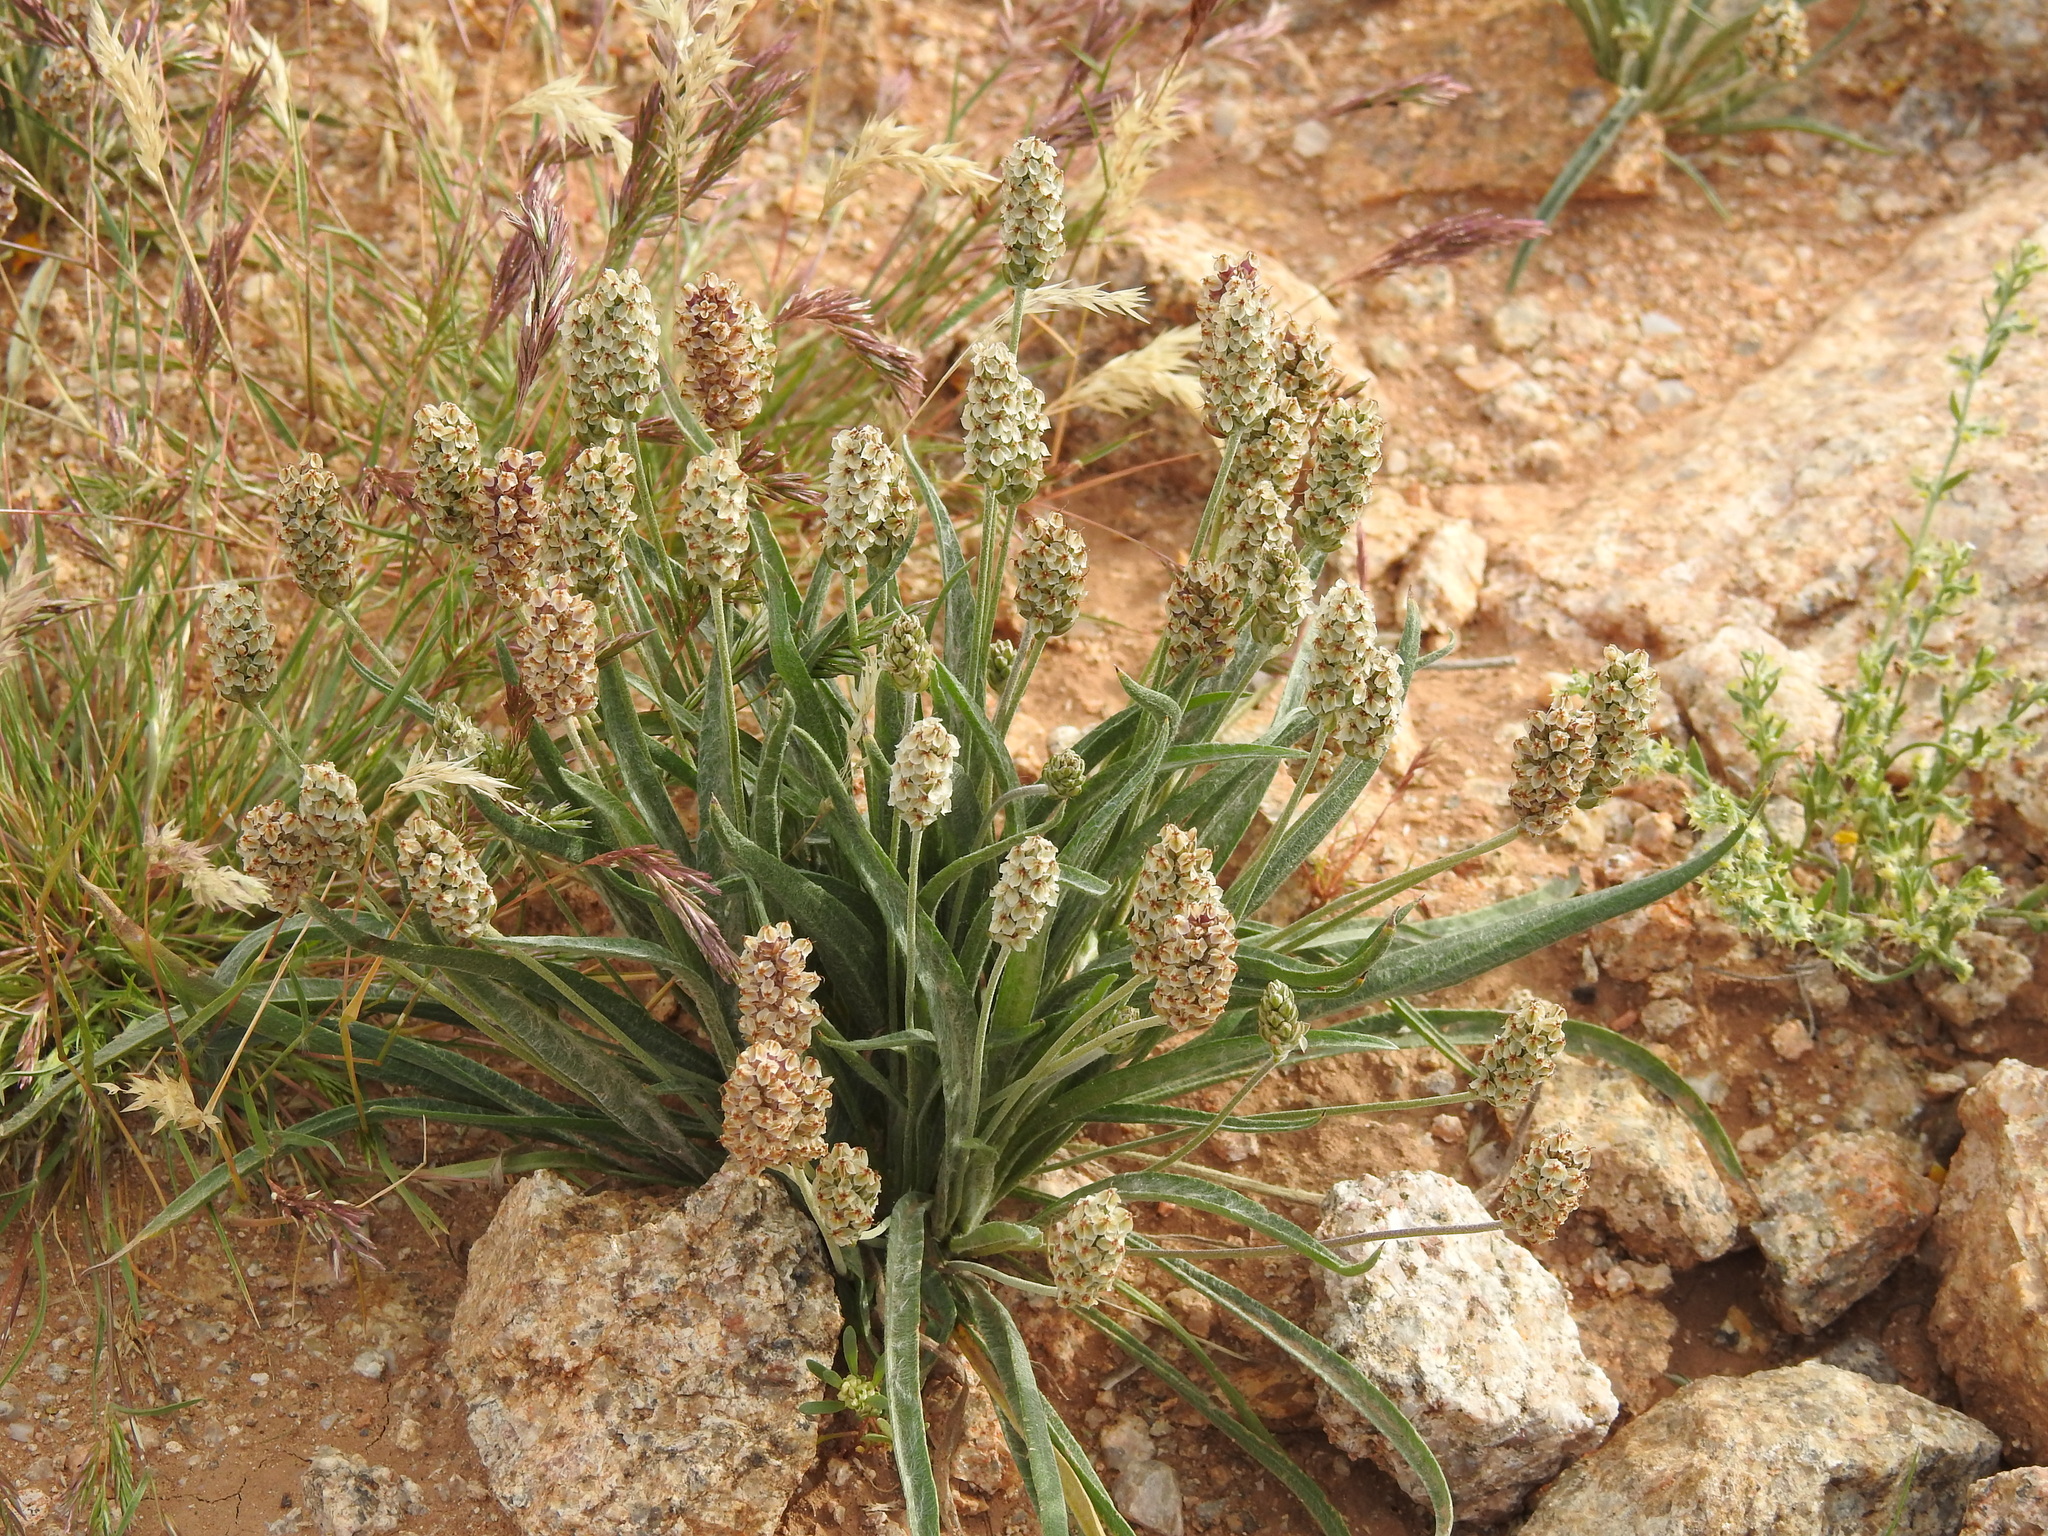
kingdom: Plantae
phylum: Tracheophyta
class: Magnoliopsida
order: Lamiales
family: Plantaginaceae
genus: Plantago
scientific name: Plantago ovata
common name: Blond plantain
